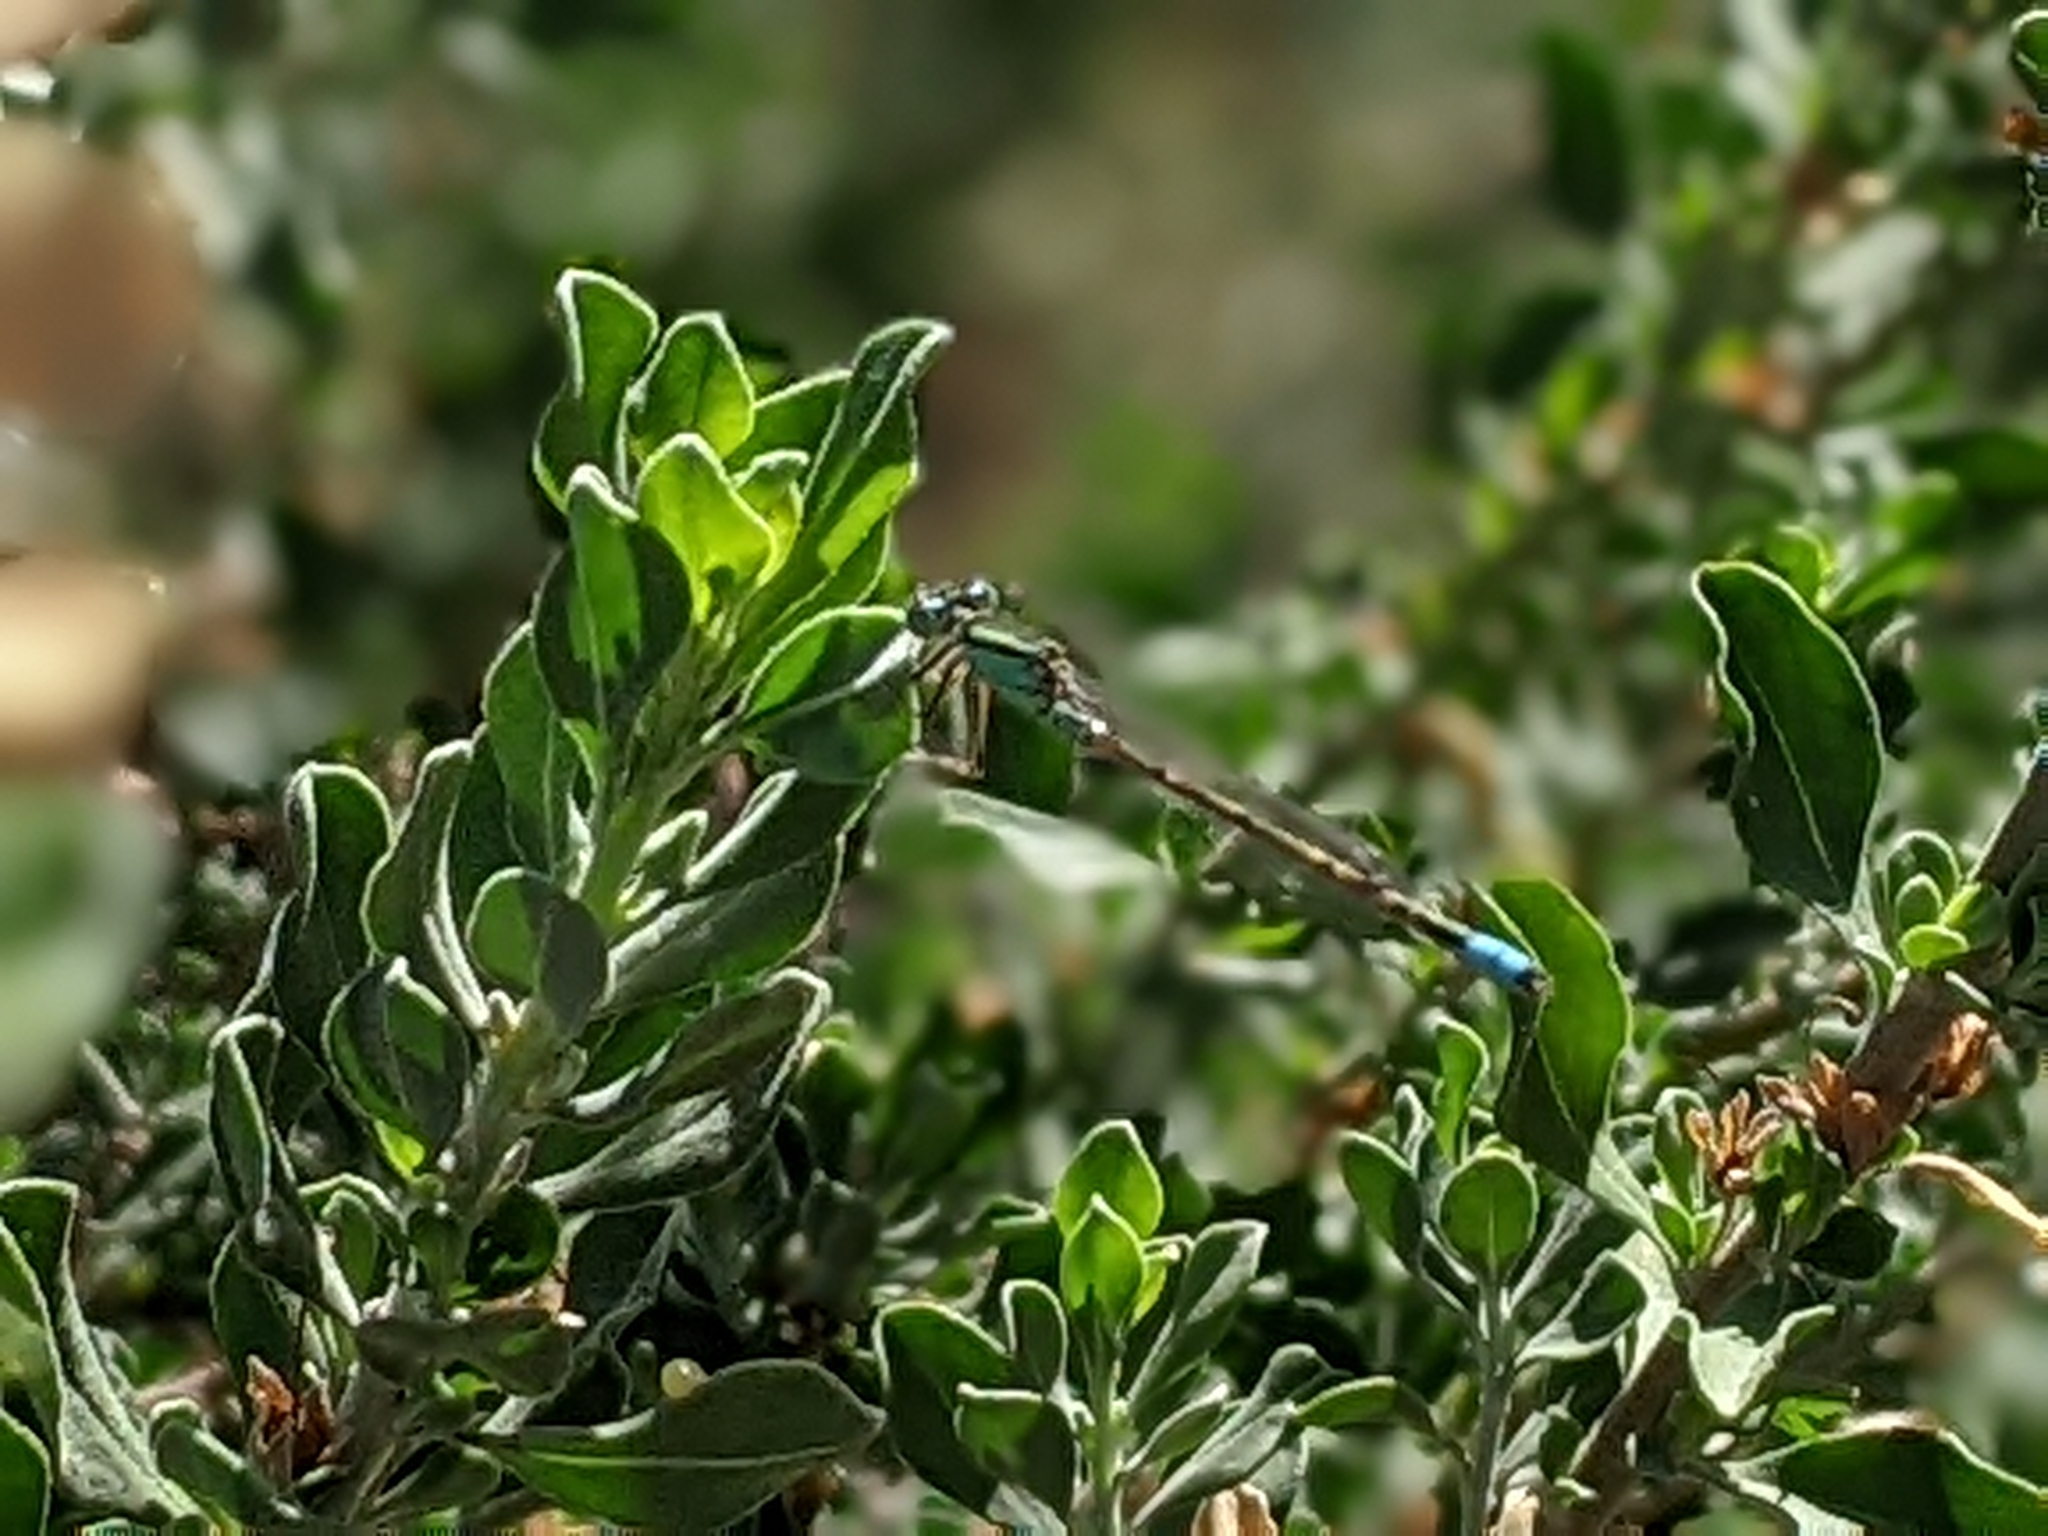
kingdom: Animalia
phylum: Arthropoda
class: Insecta
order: Odonata
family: Coenagrionidae
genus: Ischnura
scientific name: Ischnura barberi
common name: Desert forktail
